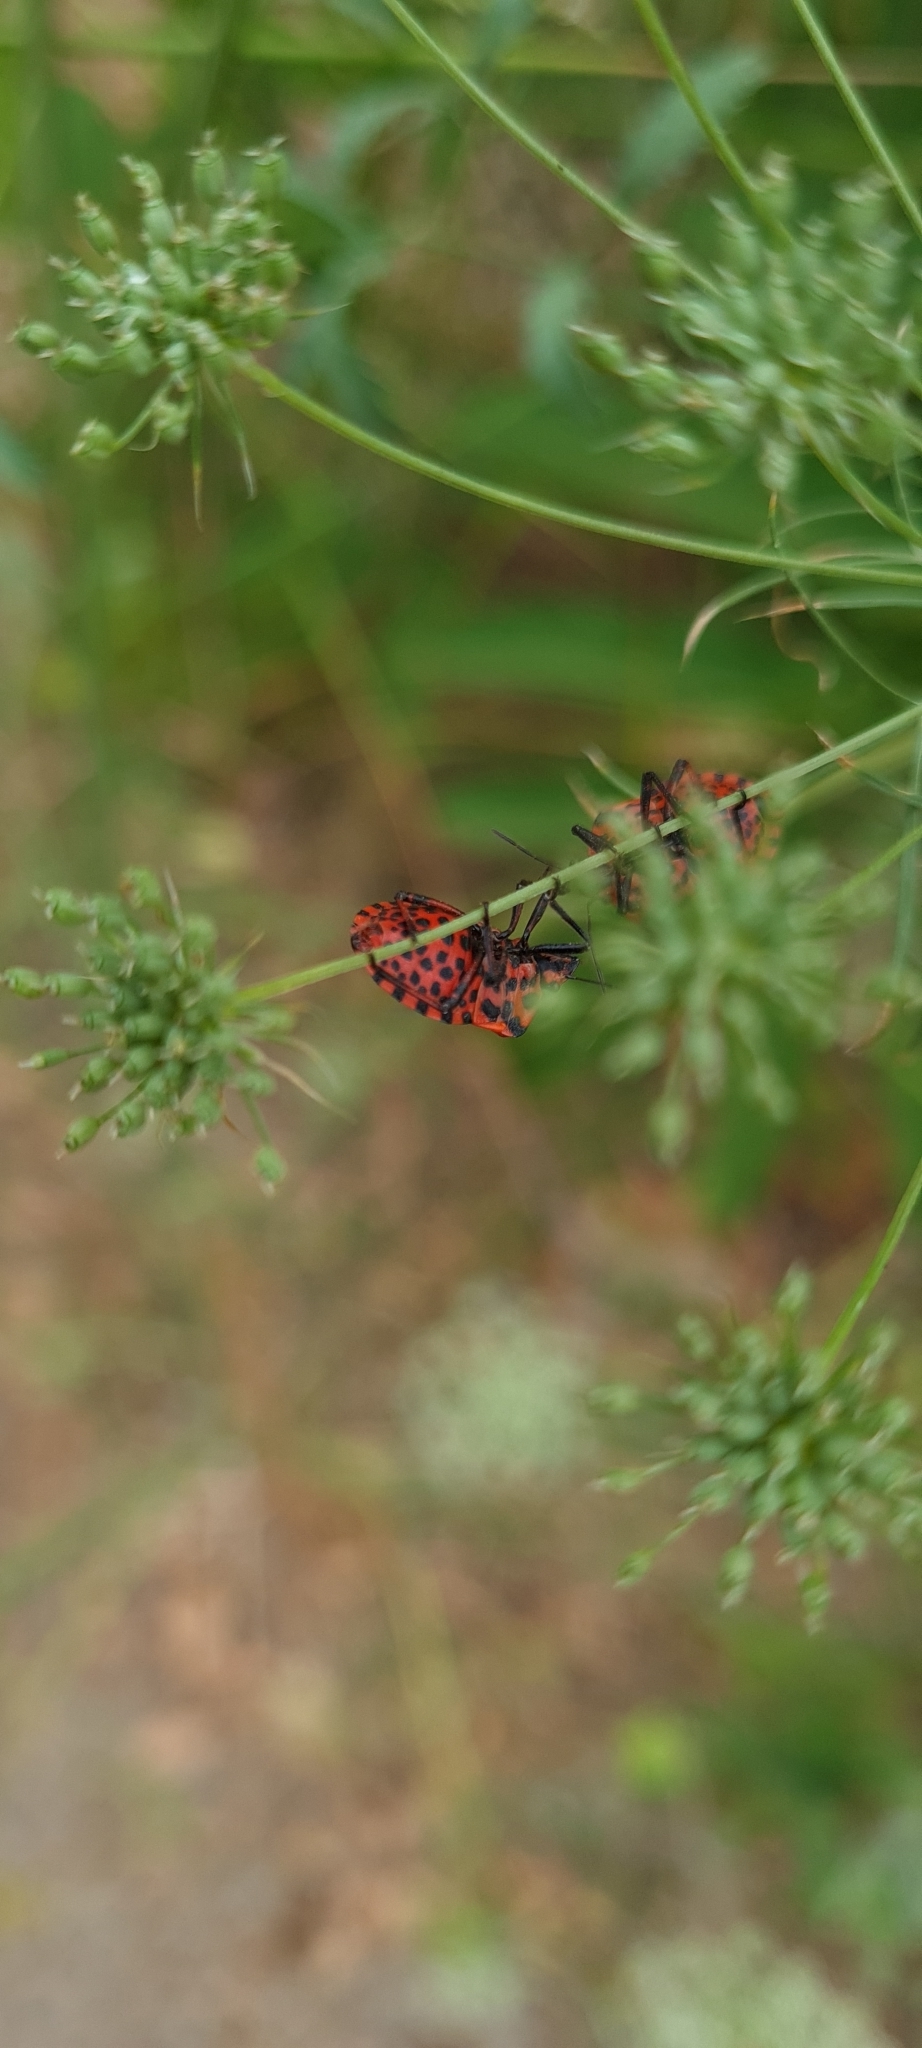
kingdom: Animalia
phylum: Arthropoda
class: Insecta
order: Hemiptera
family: Pentatomidae
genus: Graphosoma
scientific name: Graphosoma italicum
